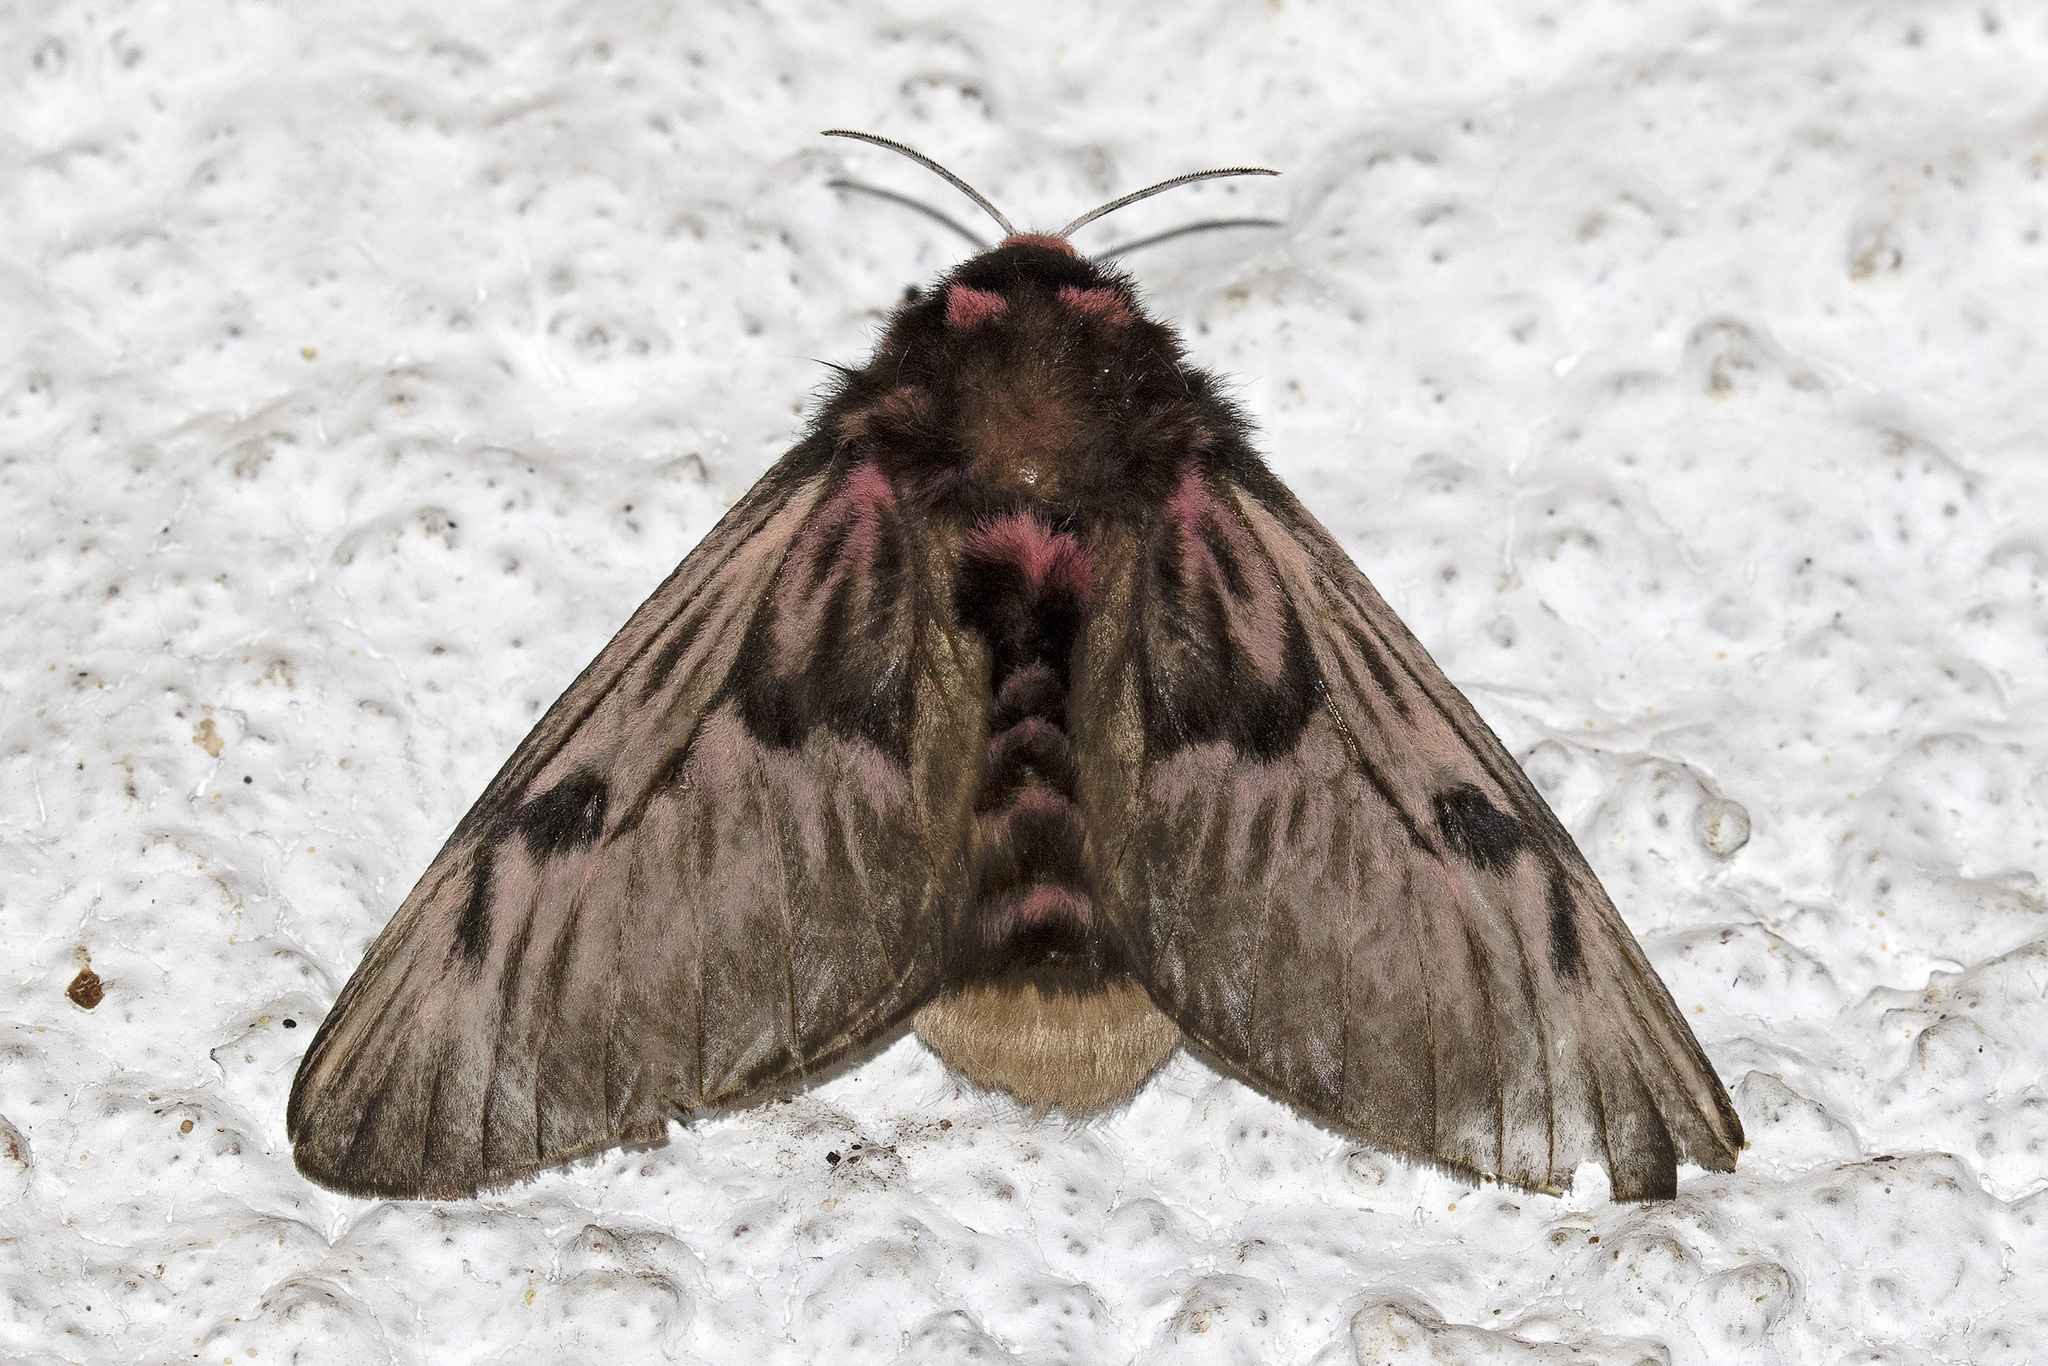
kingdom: Animalia
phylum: Arthropoda
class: Insecta
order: Lepidoptera
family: Megalopygidae
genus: Megalopyge
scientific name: Megalopyge lanata
